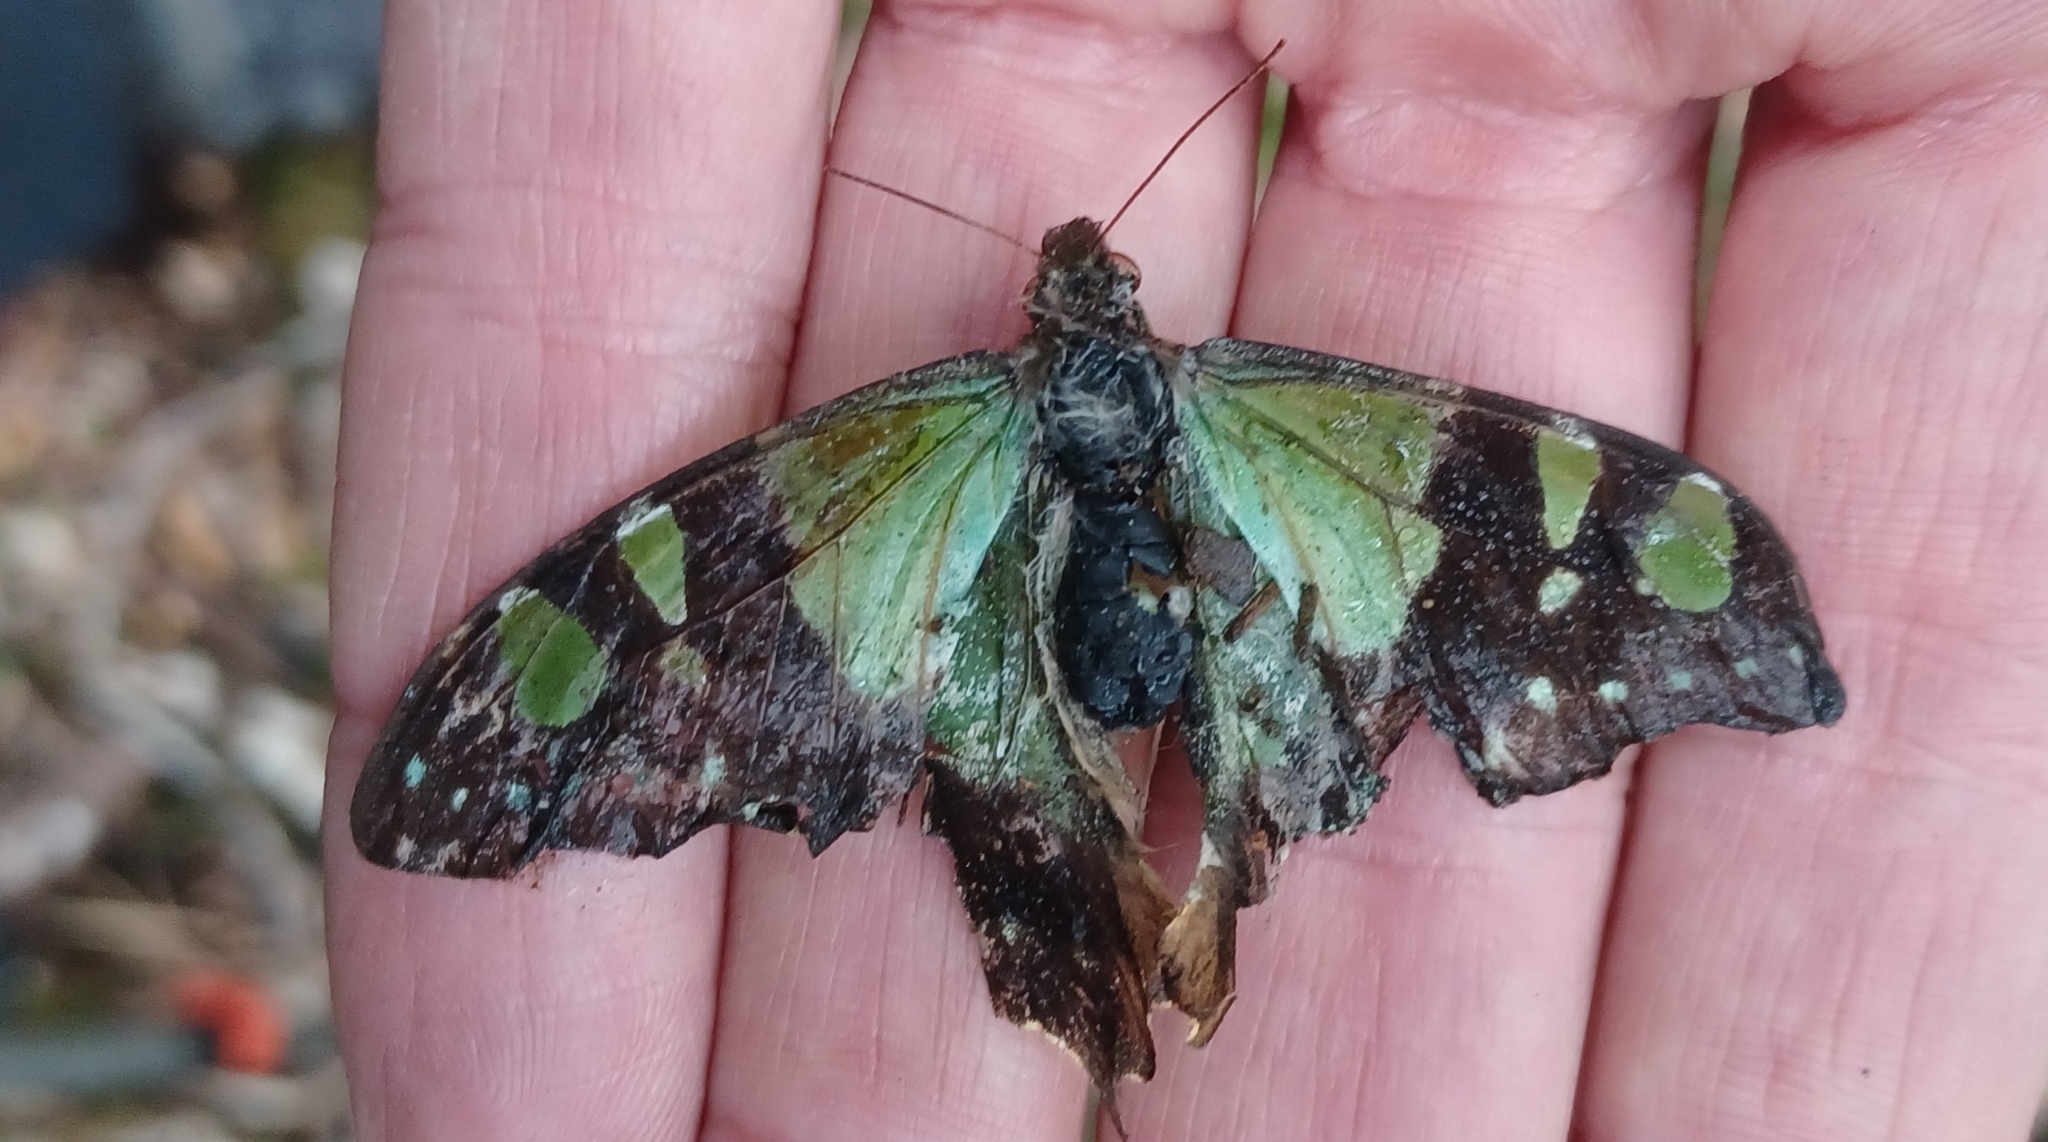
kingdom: Animalia
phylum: Arthropoda
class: Insecta
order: Lepidoptera
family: Papilionidae
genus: Graphium
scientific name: Graphium macleayanus
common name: Macleay's swallowtail
